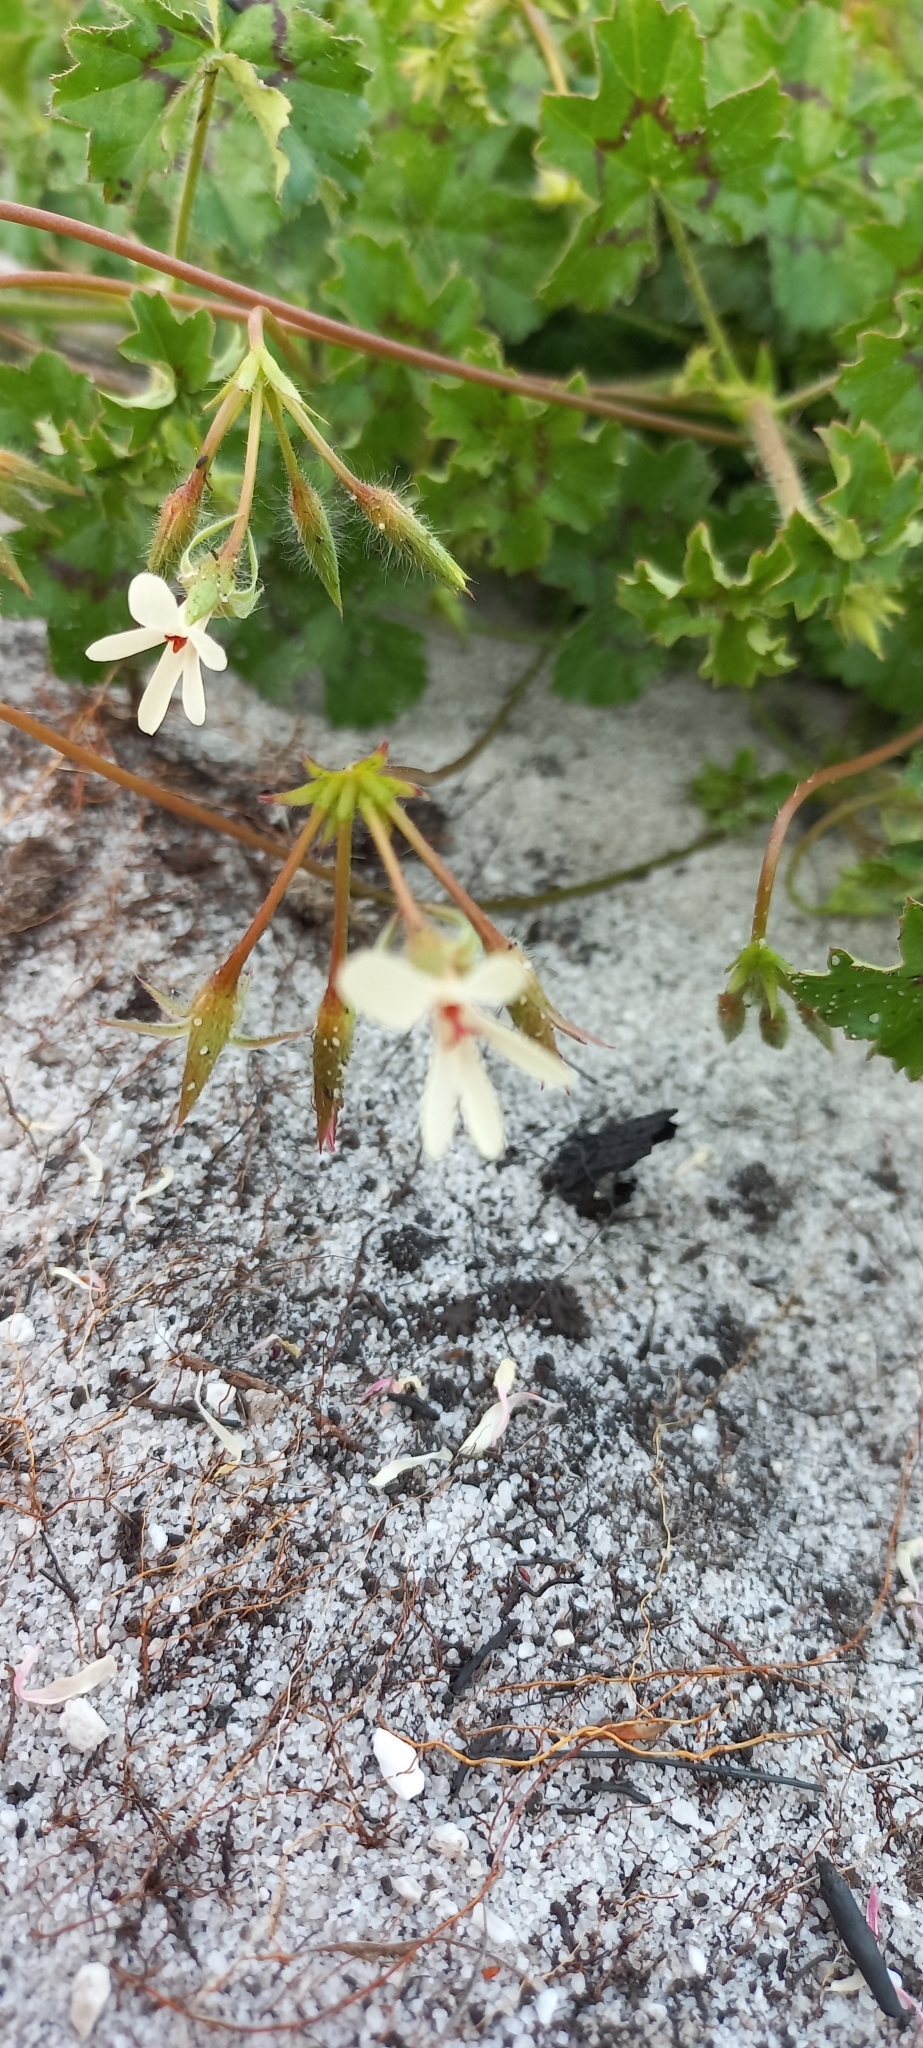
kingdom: Plantae
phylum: Tracheophyta
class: Magnoliopsida
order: Geraniales
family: Geraniaceae
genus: Pelargonium
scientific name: Pelargonium elongatum
